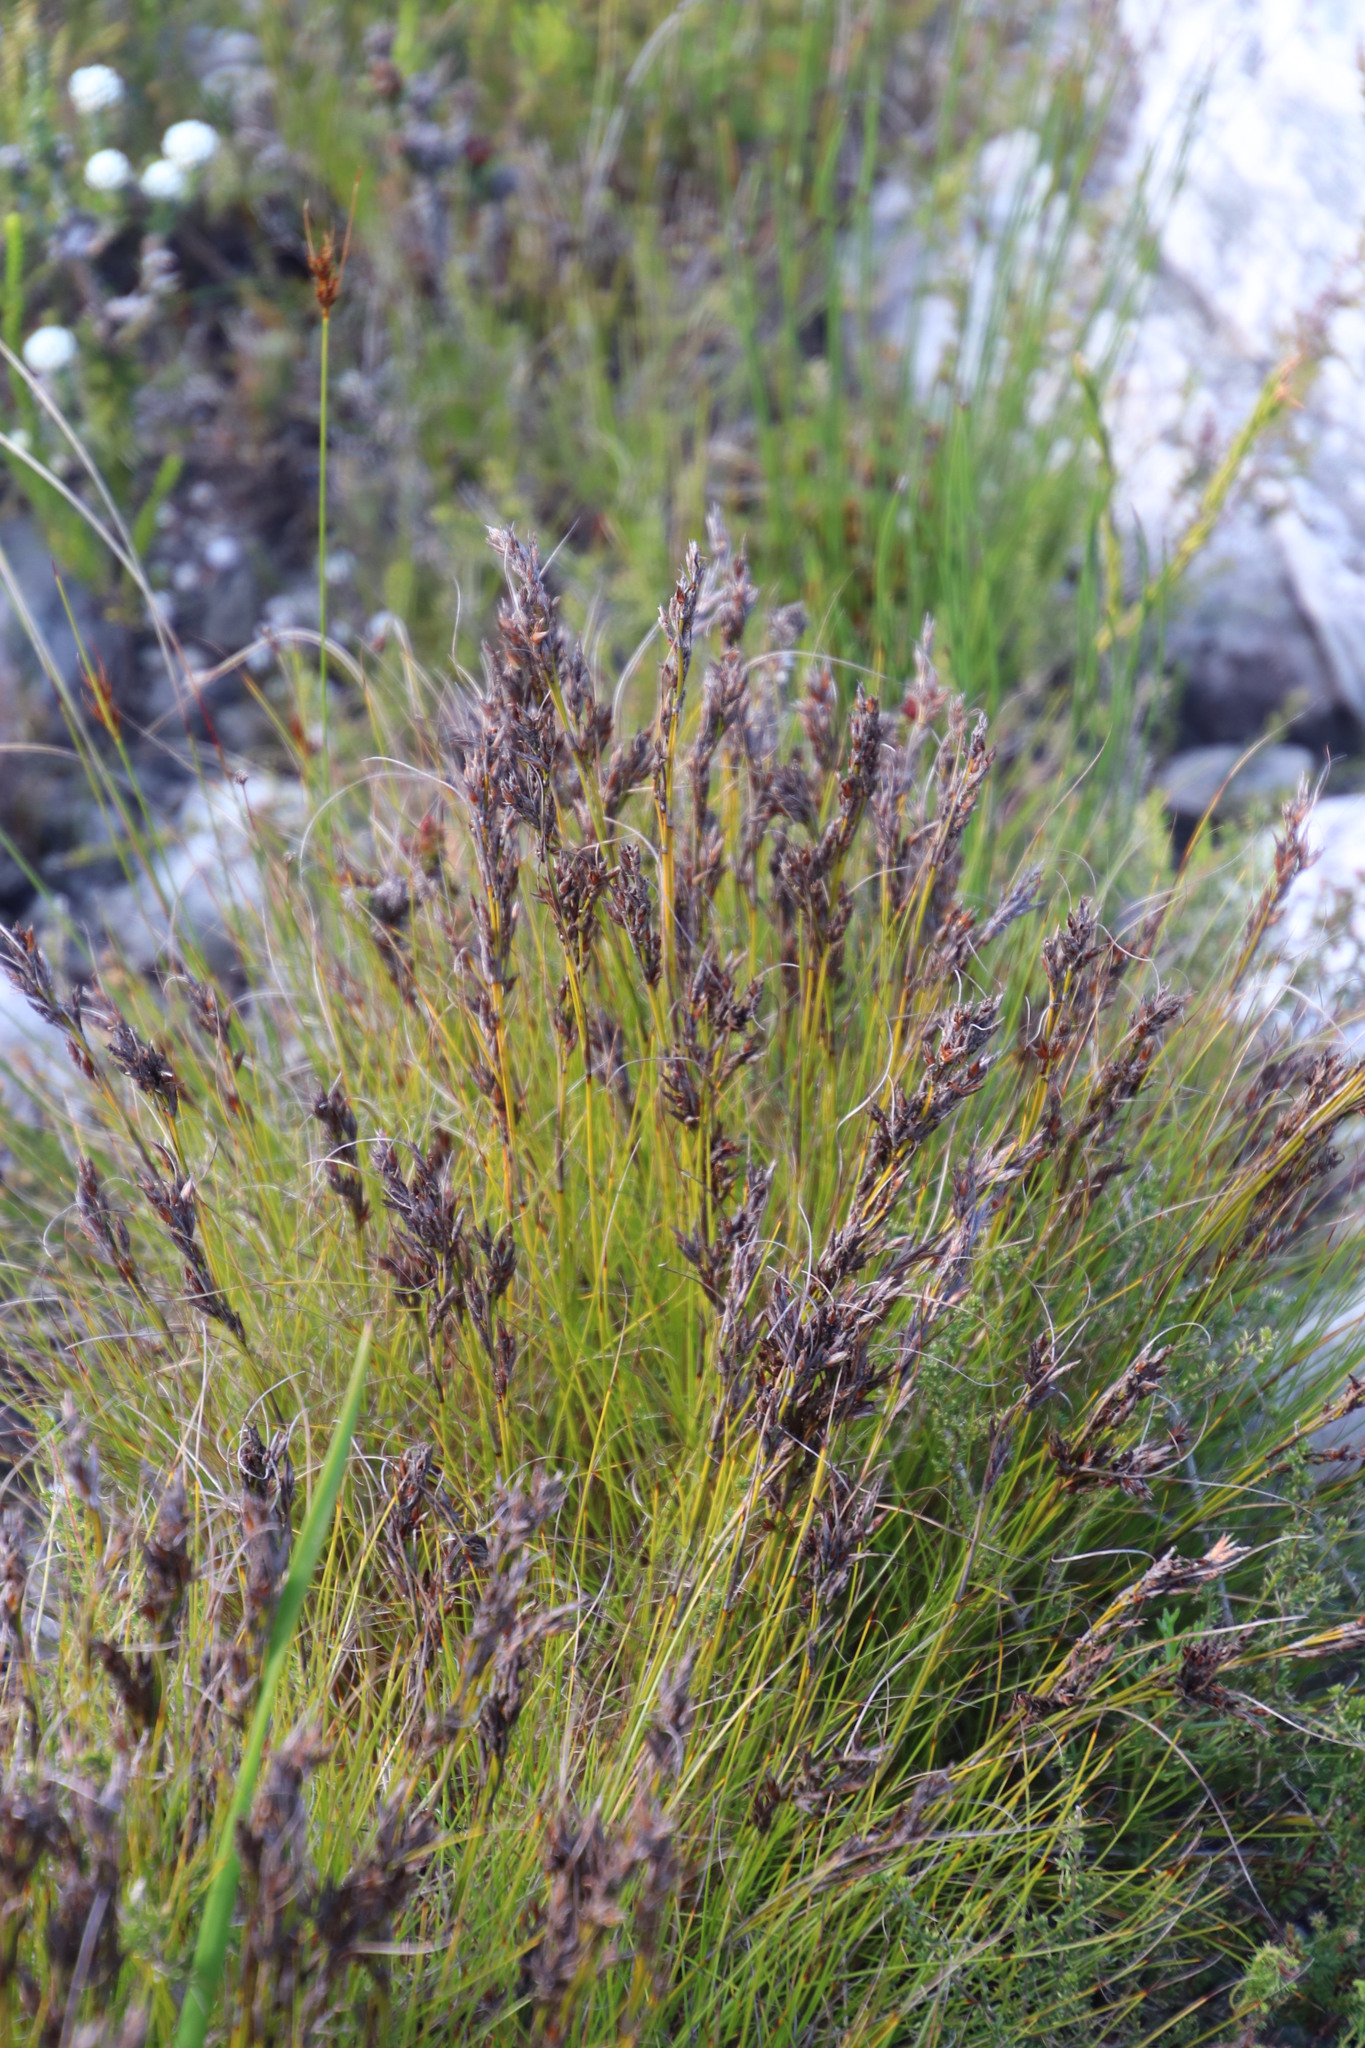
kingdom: Plantae
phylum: Tracheophyta
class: Liliopsida
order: Poales
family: Cyperaceae
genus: Tetraria
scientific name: Tetraria fasciata
